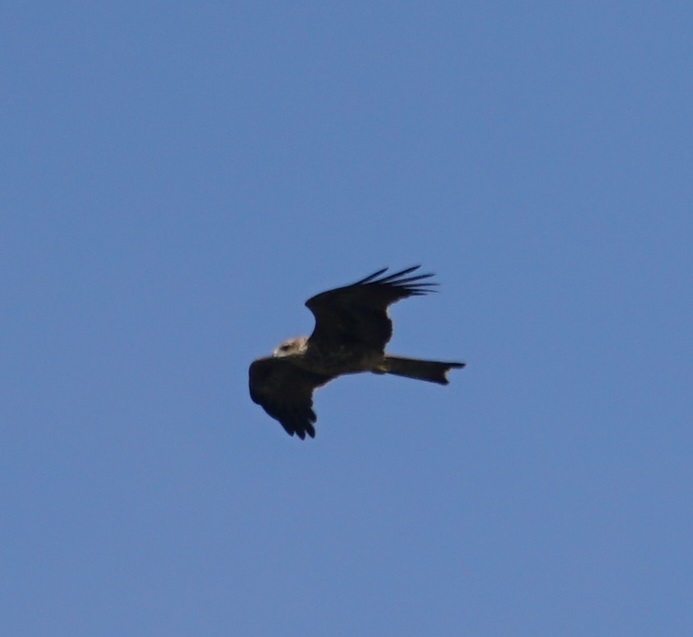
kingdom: Animalia
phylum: Chordata
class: Aves
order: Accipitriformes
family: Accipitridae
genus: Milvus
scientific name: Milvus migrans
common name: Black kite
